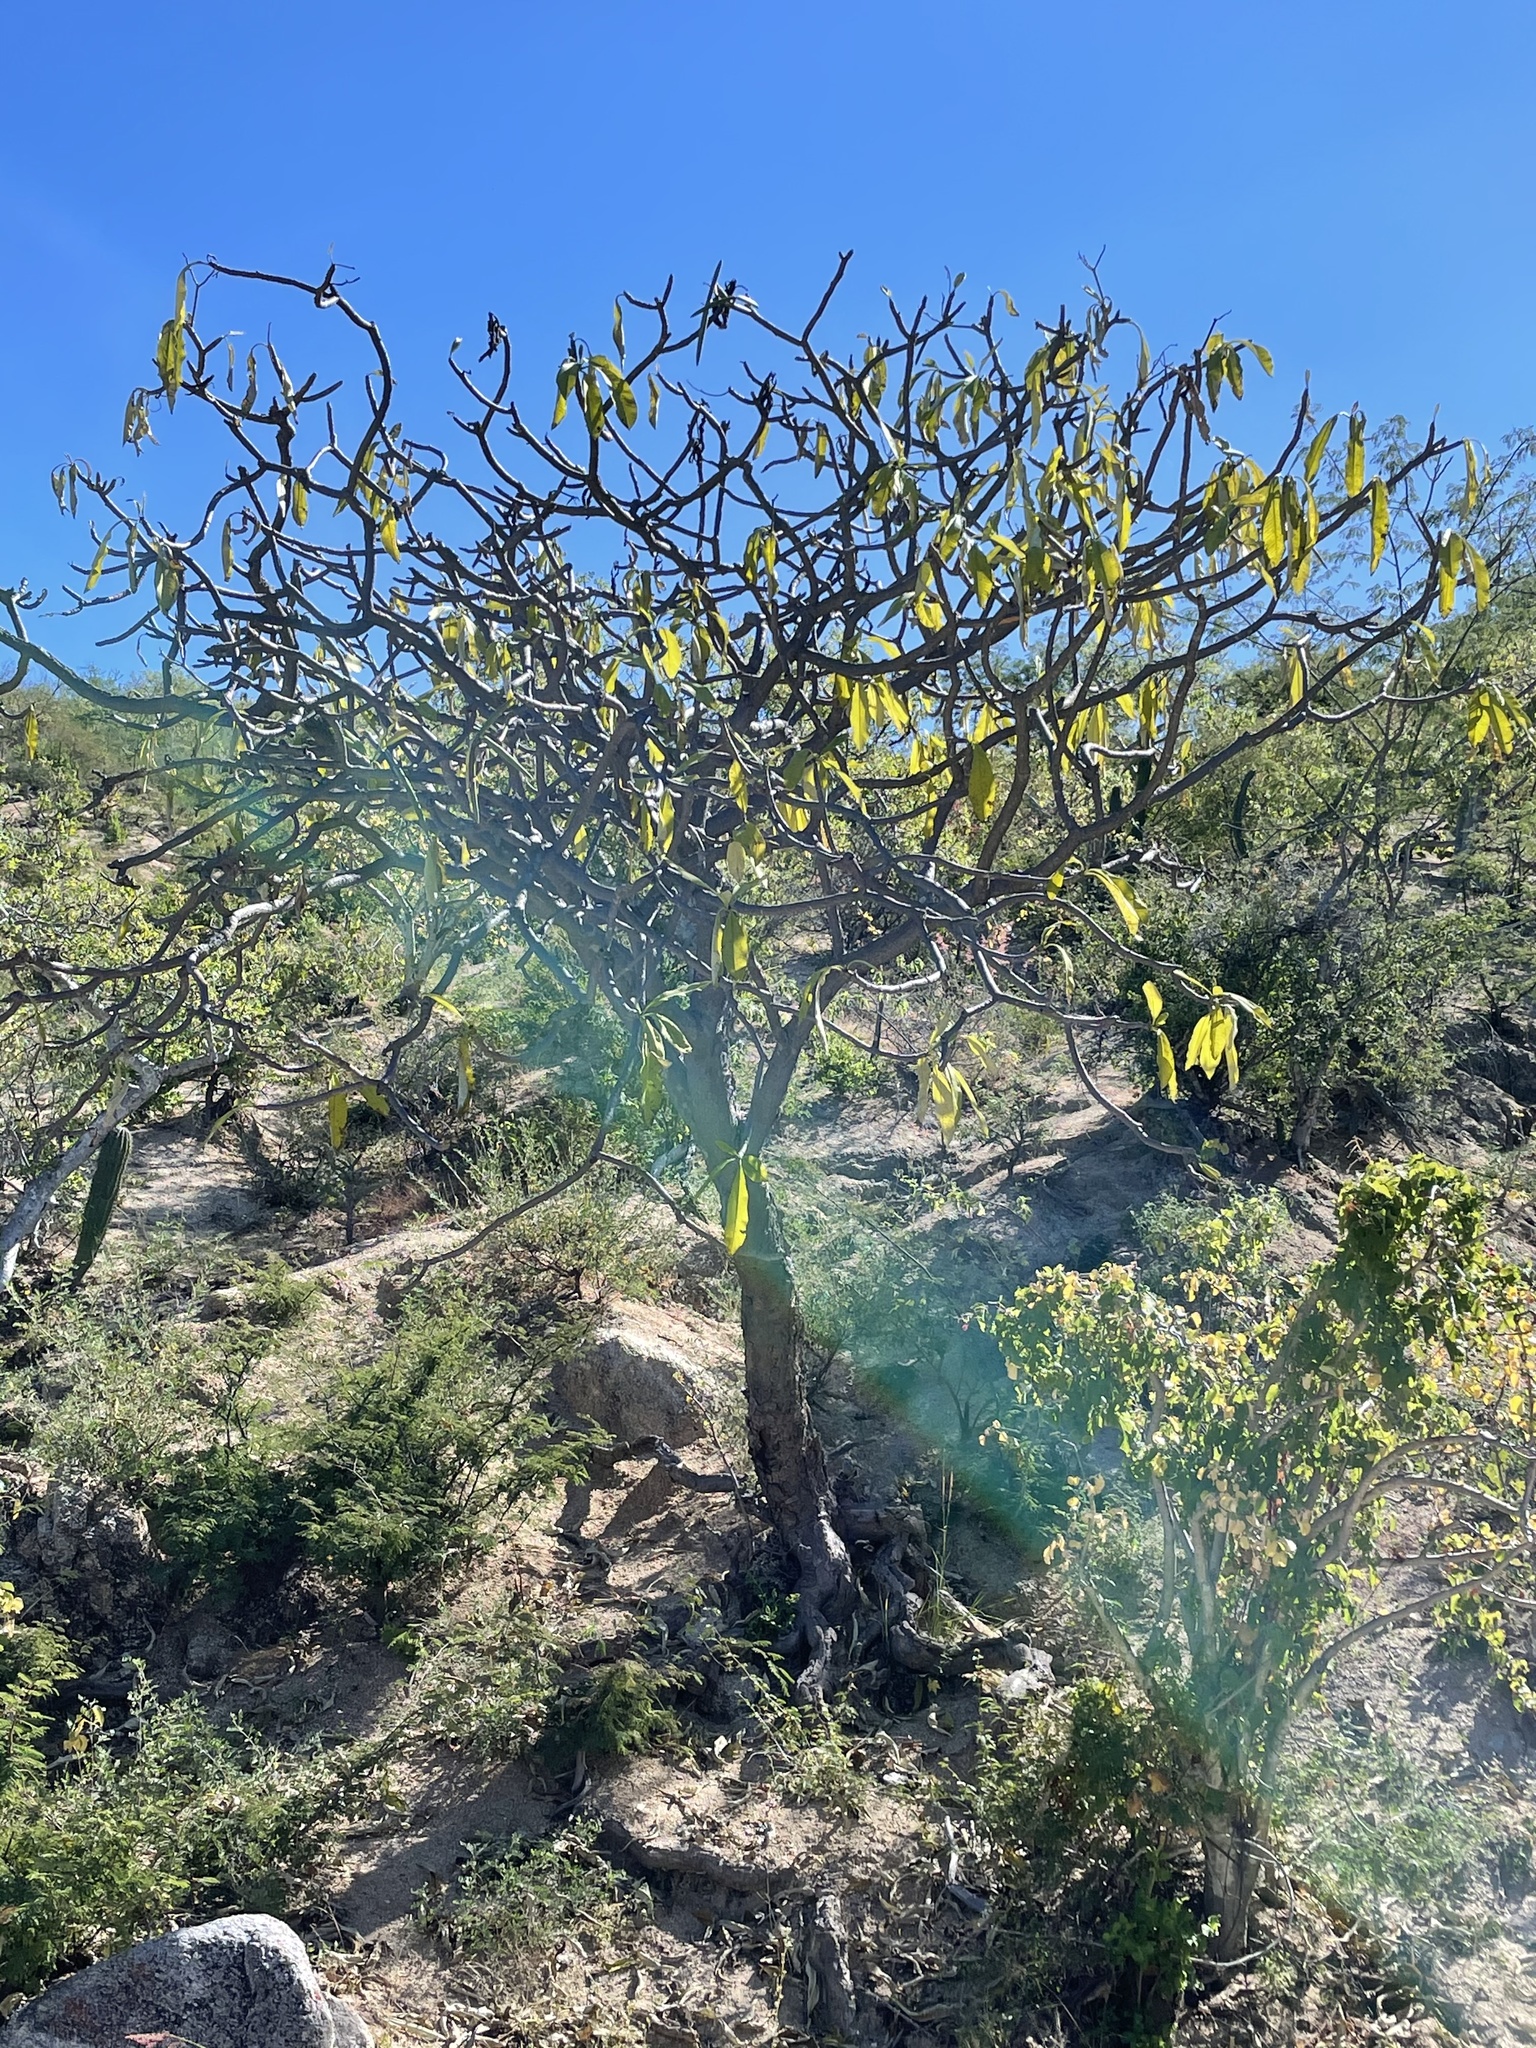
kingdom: Plantae
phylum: Tracheophyta
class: Magnoliopsida
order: Gentianales
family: Apocynaceae
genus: Plumeria
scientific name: Plumeria rubra
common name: Pagoda-tree
